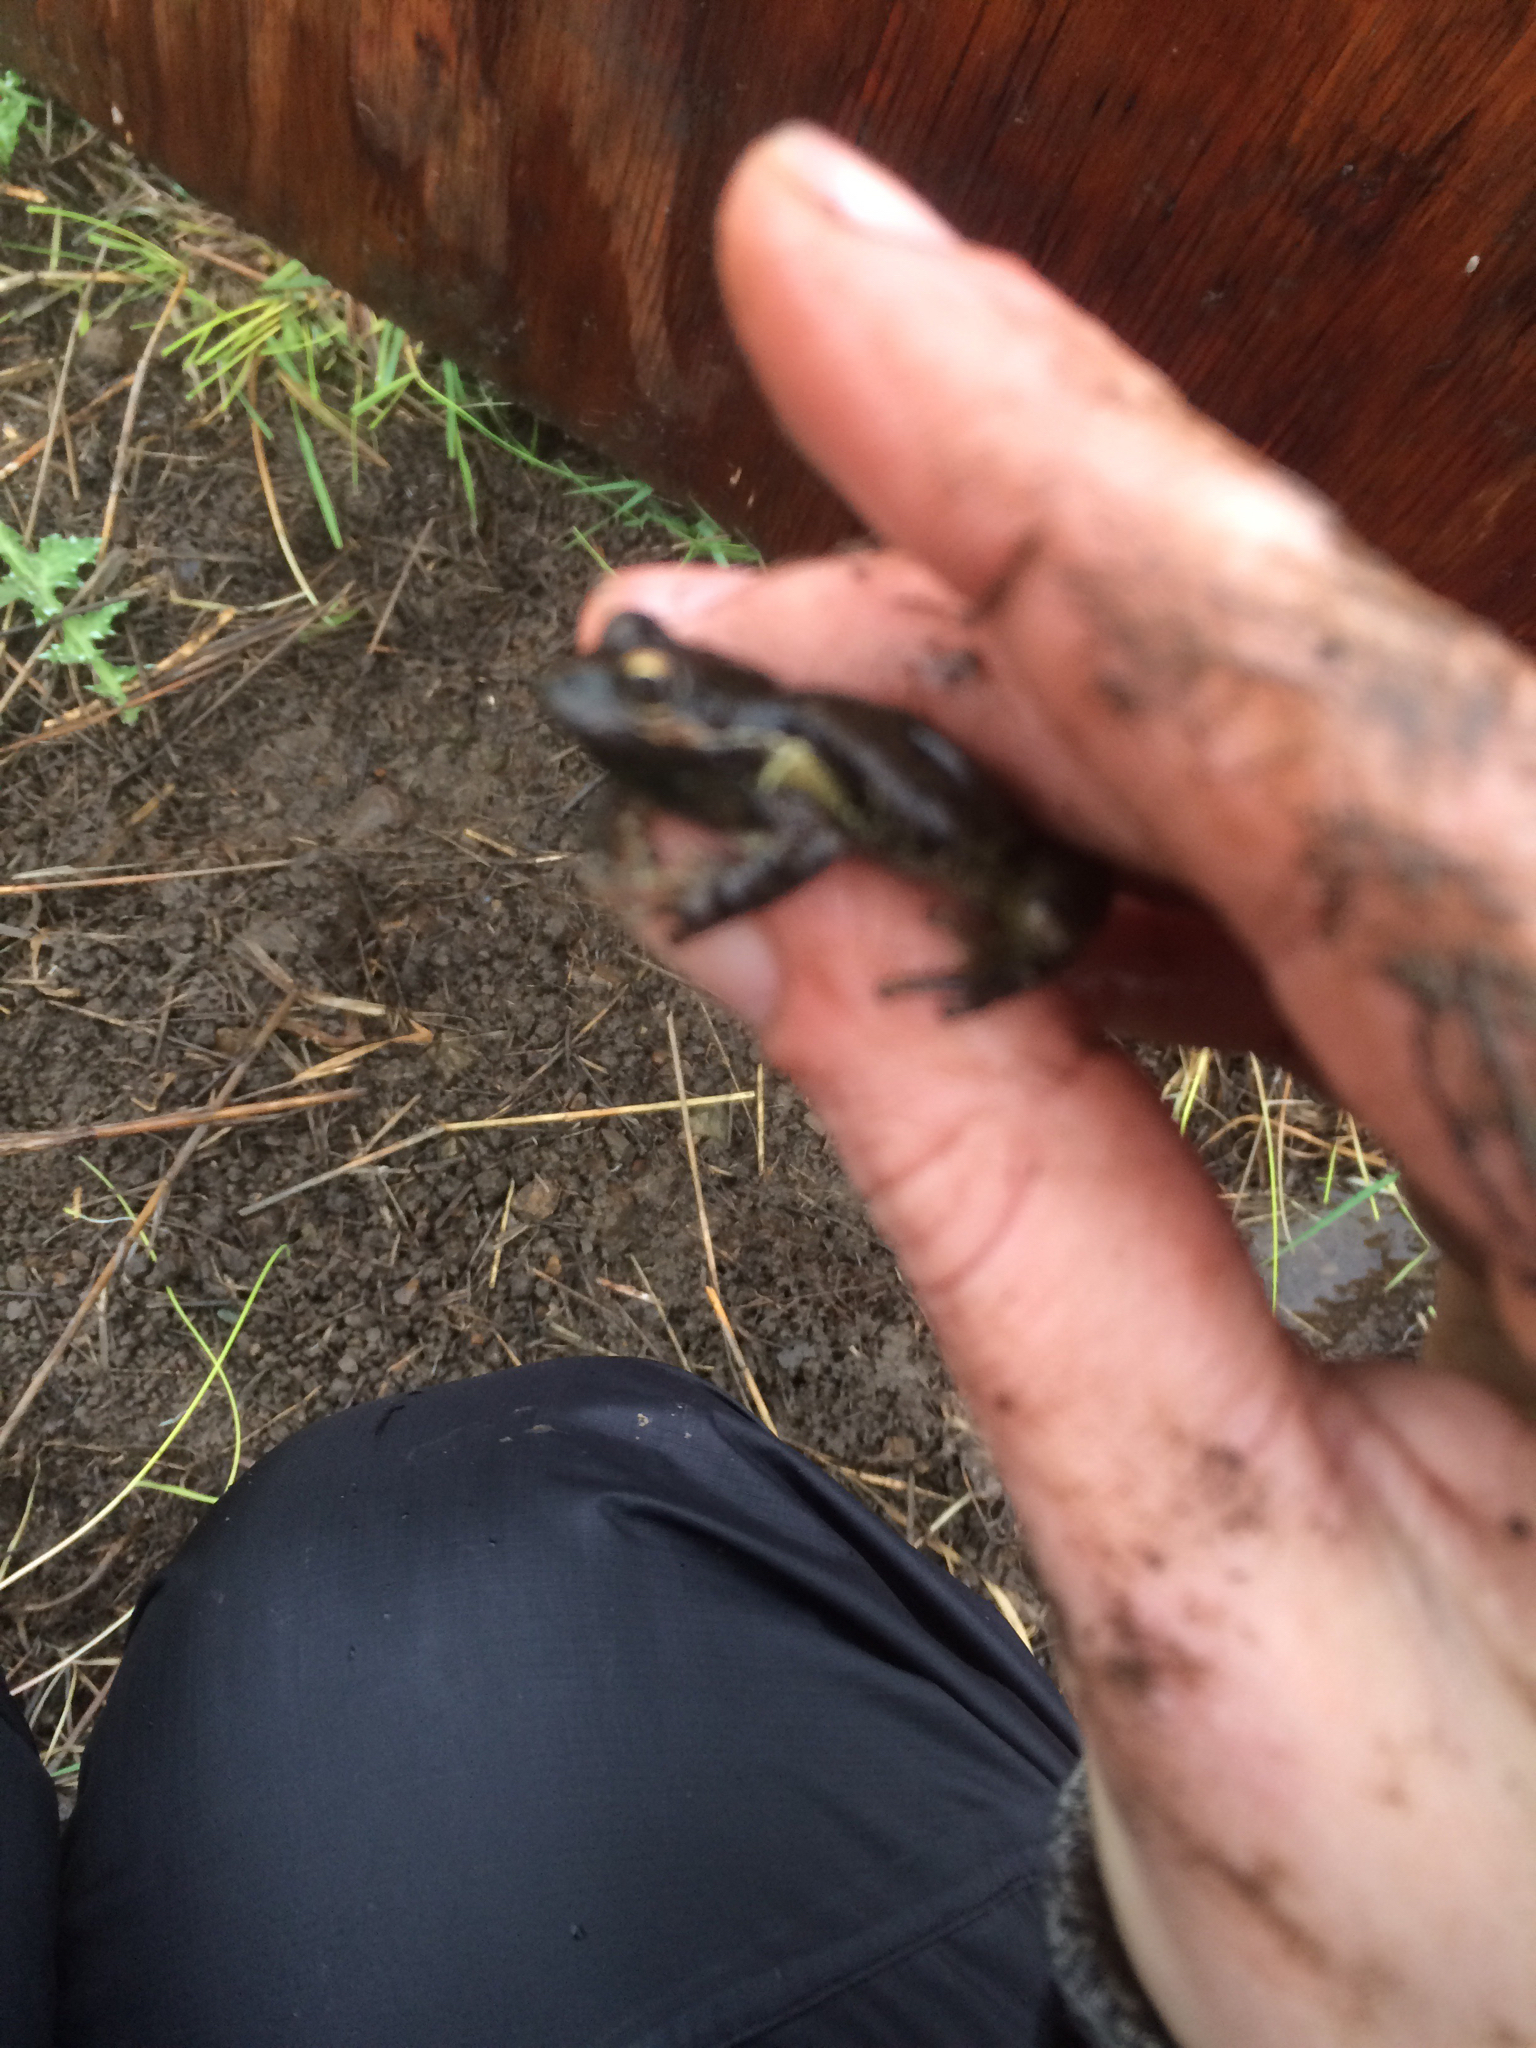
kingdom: Animalia
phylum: Chordata
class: Amphibia
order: Anura
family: Hylidae
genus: Pseudacris
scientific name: Pseudacris regilla
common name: Pacific chorus frog
